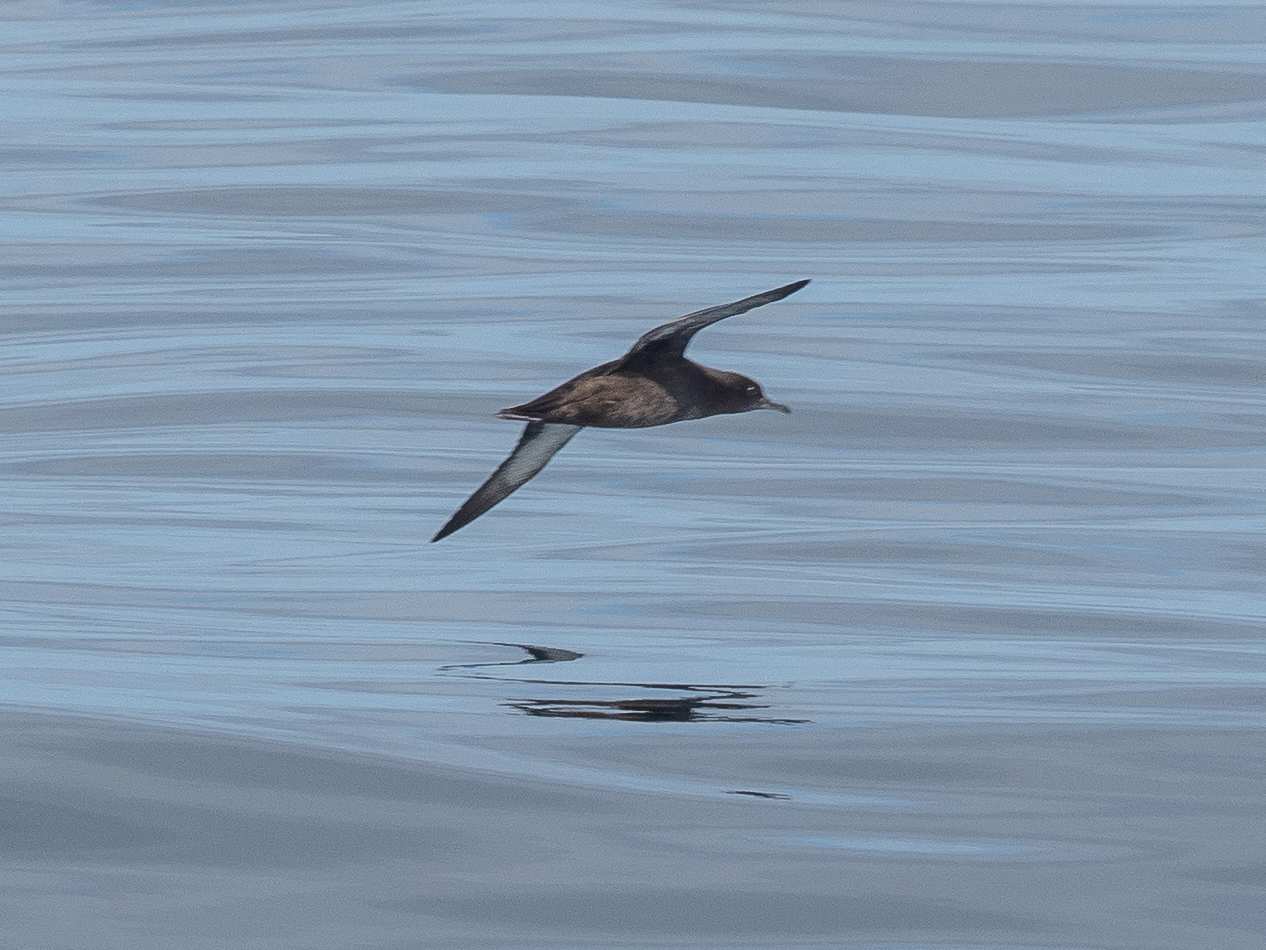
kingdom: Animalia
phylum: Chordata
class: Aves
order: Procellariiformes
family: Procellariidae
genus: Puffinus
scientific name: Puffinus griseus
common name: Sooty shearwater
